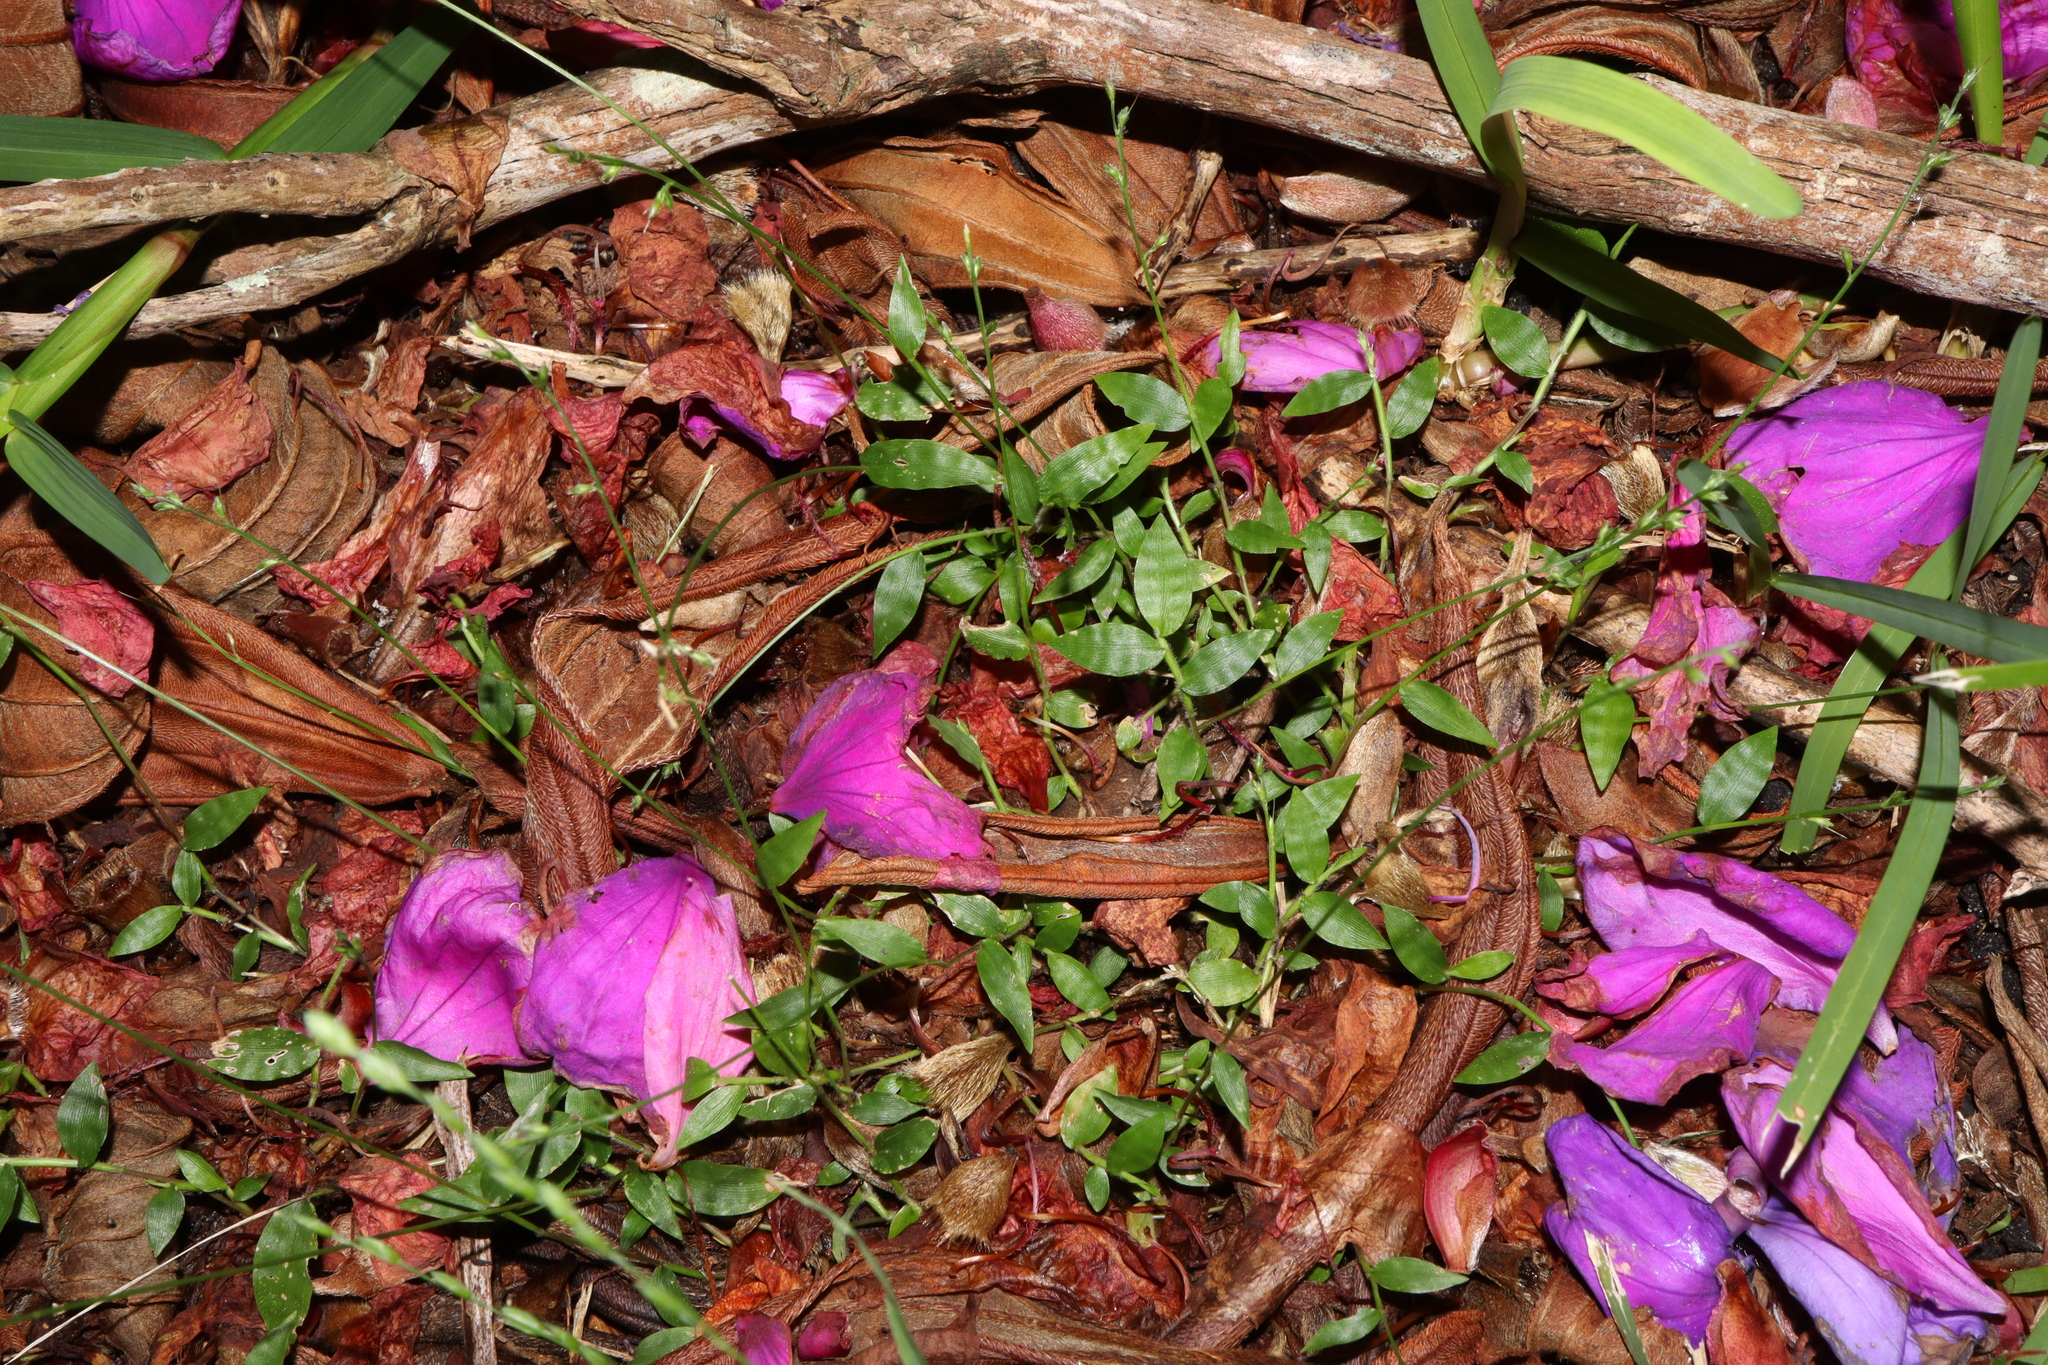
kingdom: Plantae
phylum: Tracheophyta
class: Liliopsida
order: Poales
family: Poaceae
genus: Oplismenus
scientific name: Oplismenus hirtellus
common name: Basketgrass
